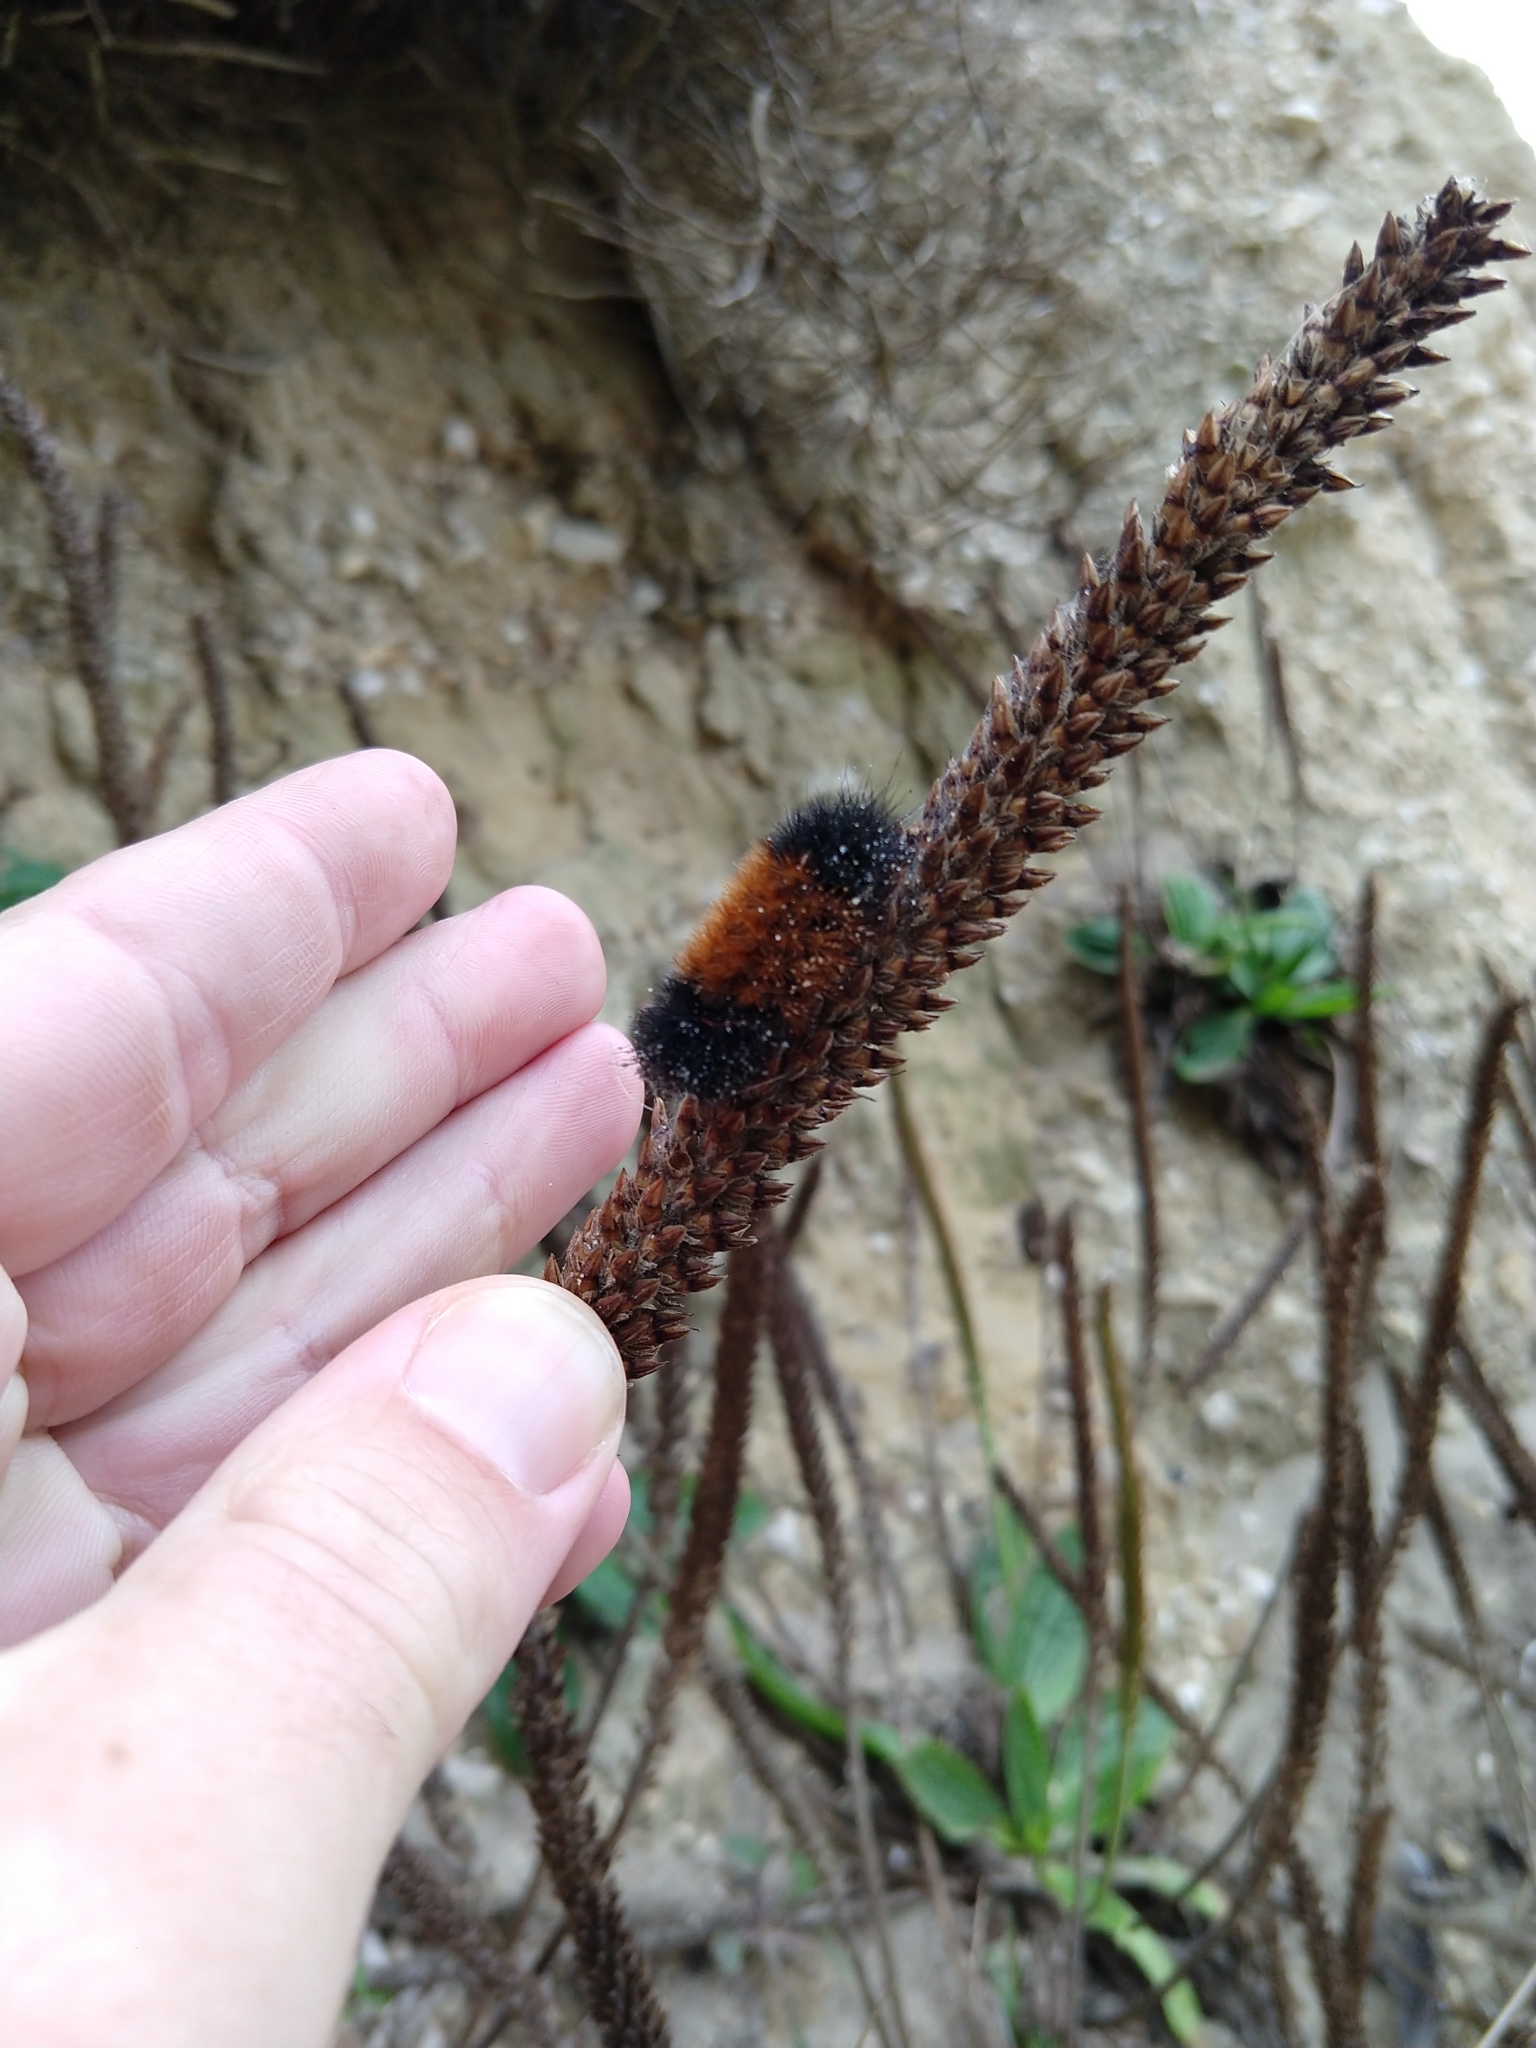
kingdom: Animalia
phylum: Arthropoda
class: Insecta
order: Lepidoptera
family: Erebidae
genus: Pyrrharctia
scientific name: Pyrrharctia isabella
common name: Isabella tiger moth
